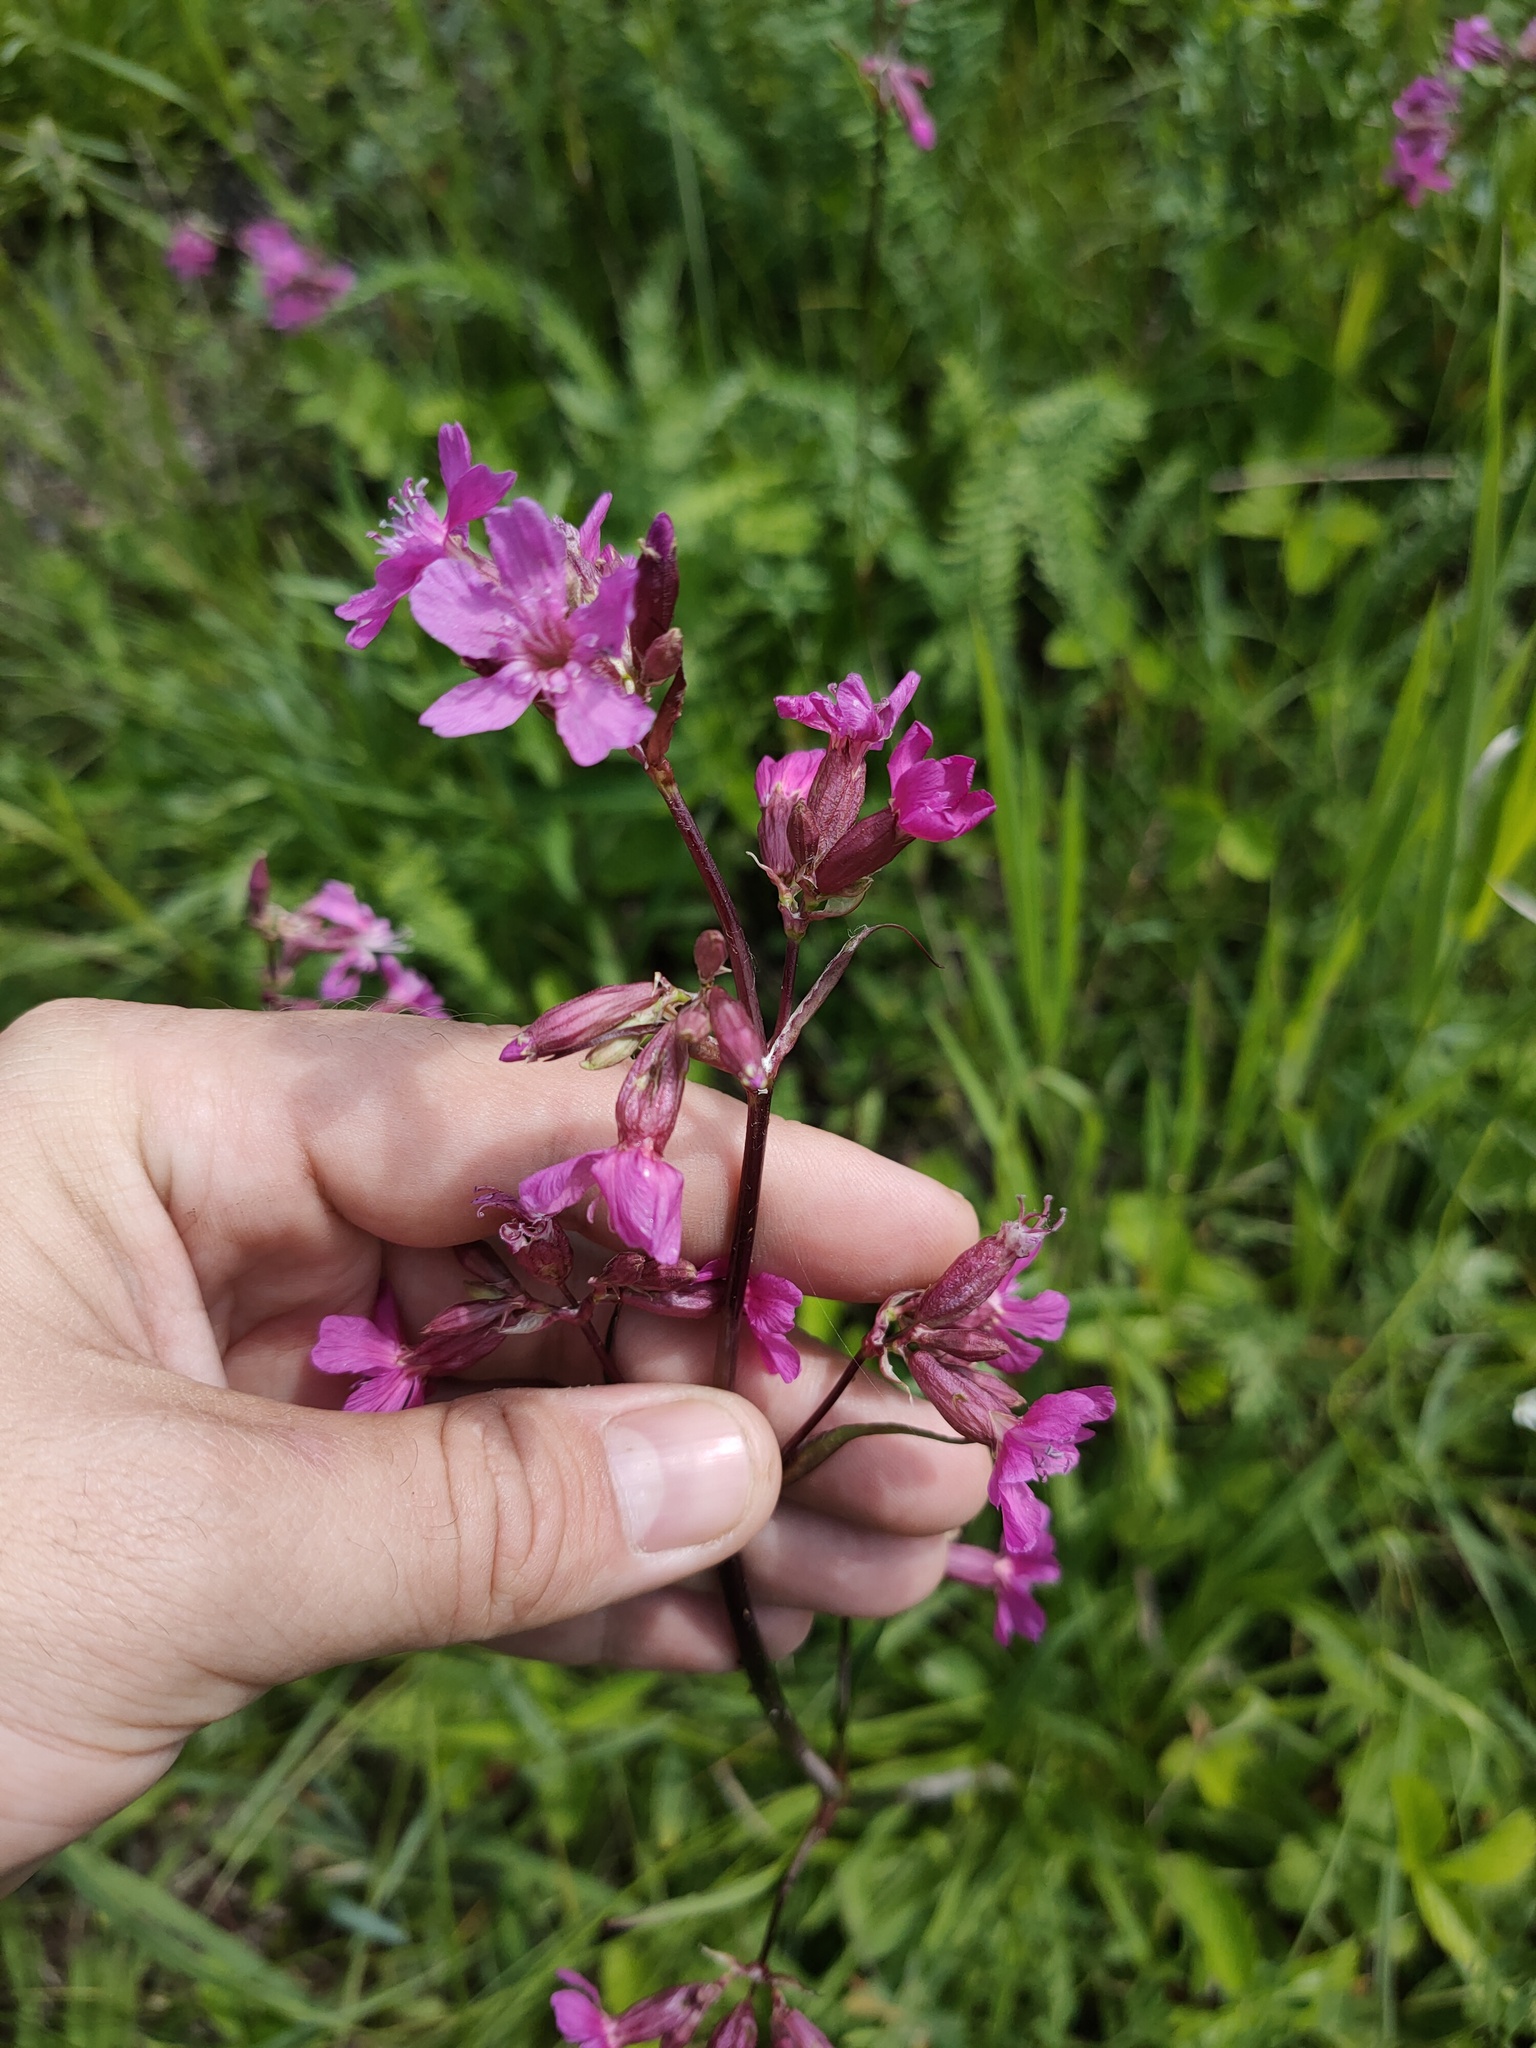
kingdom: Plantae
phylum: Tracheophyta
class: Magnoliopsida
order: Caryophyllales
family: Caryophyllaceae
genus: Viscaria
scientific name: Viscaria vulgaris
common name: Clammy campion
